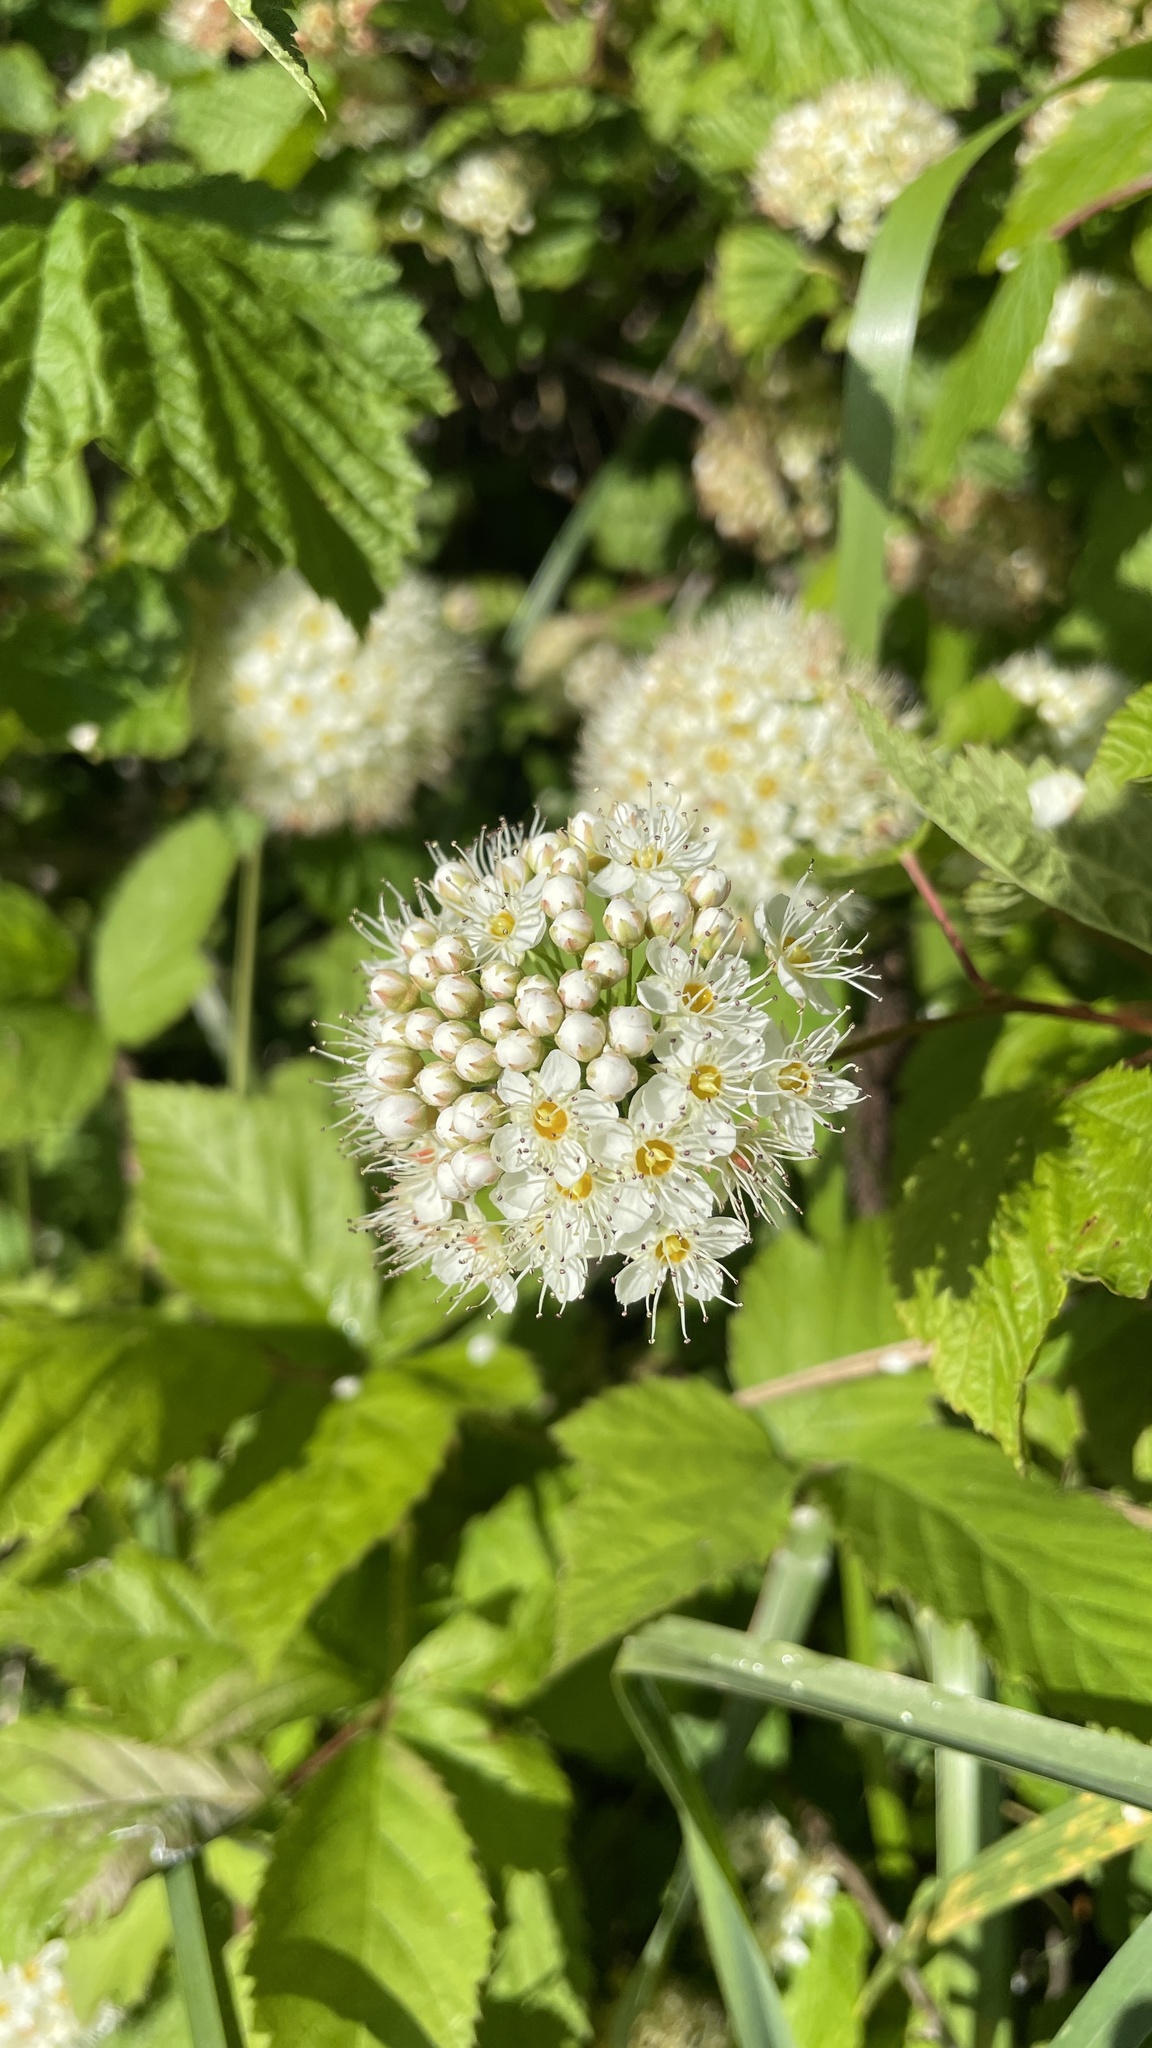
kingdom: Plantae
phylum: Tracheophyta
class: Magnoliopsida
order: Rosales
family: Rosaceae
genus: Physocarpus
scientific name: Physocarpus capitatus
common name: Pacific ninebark
